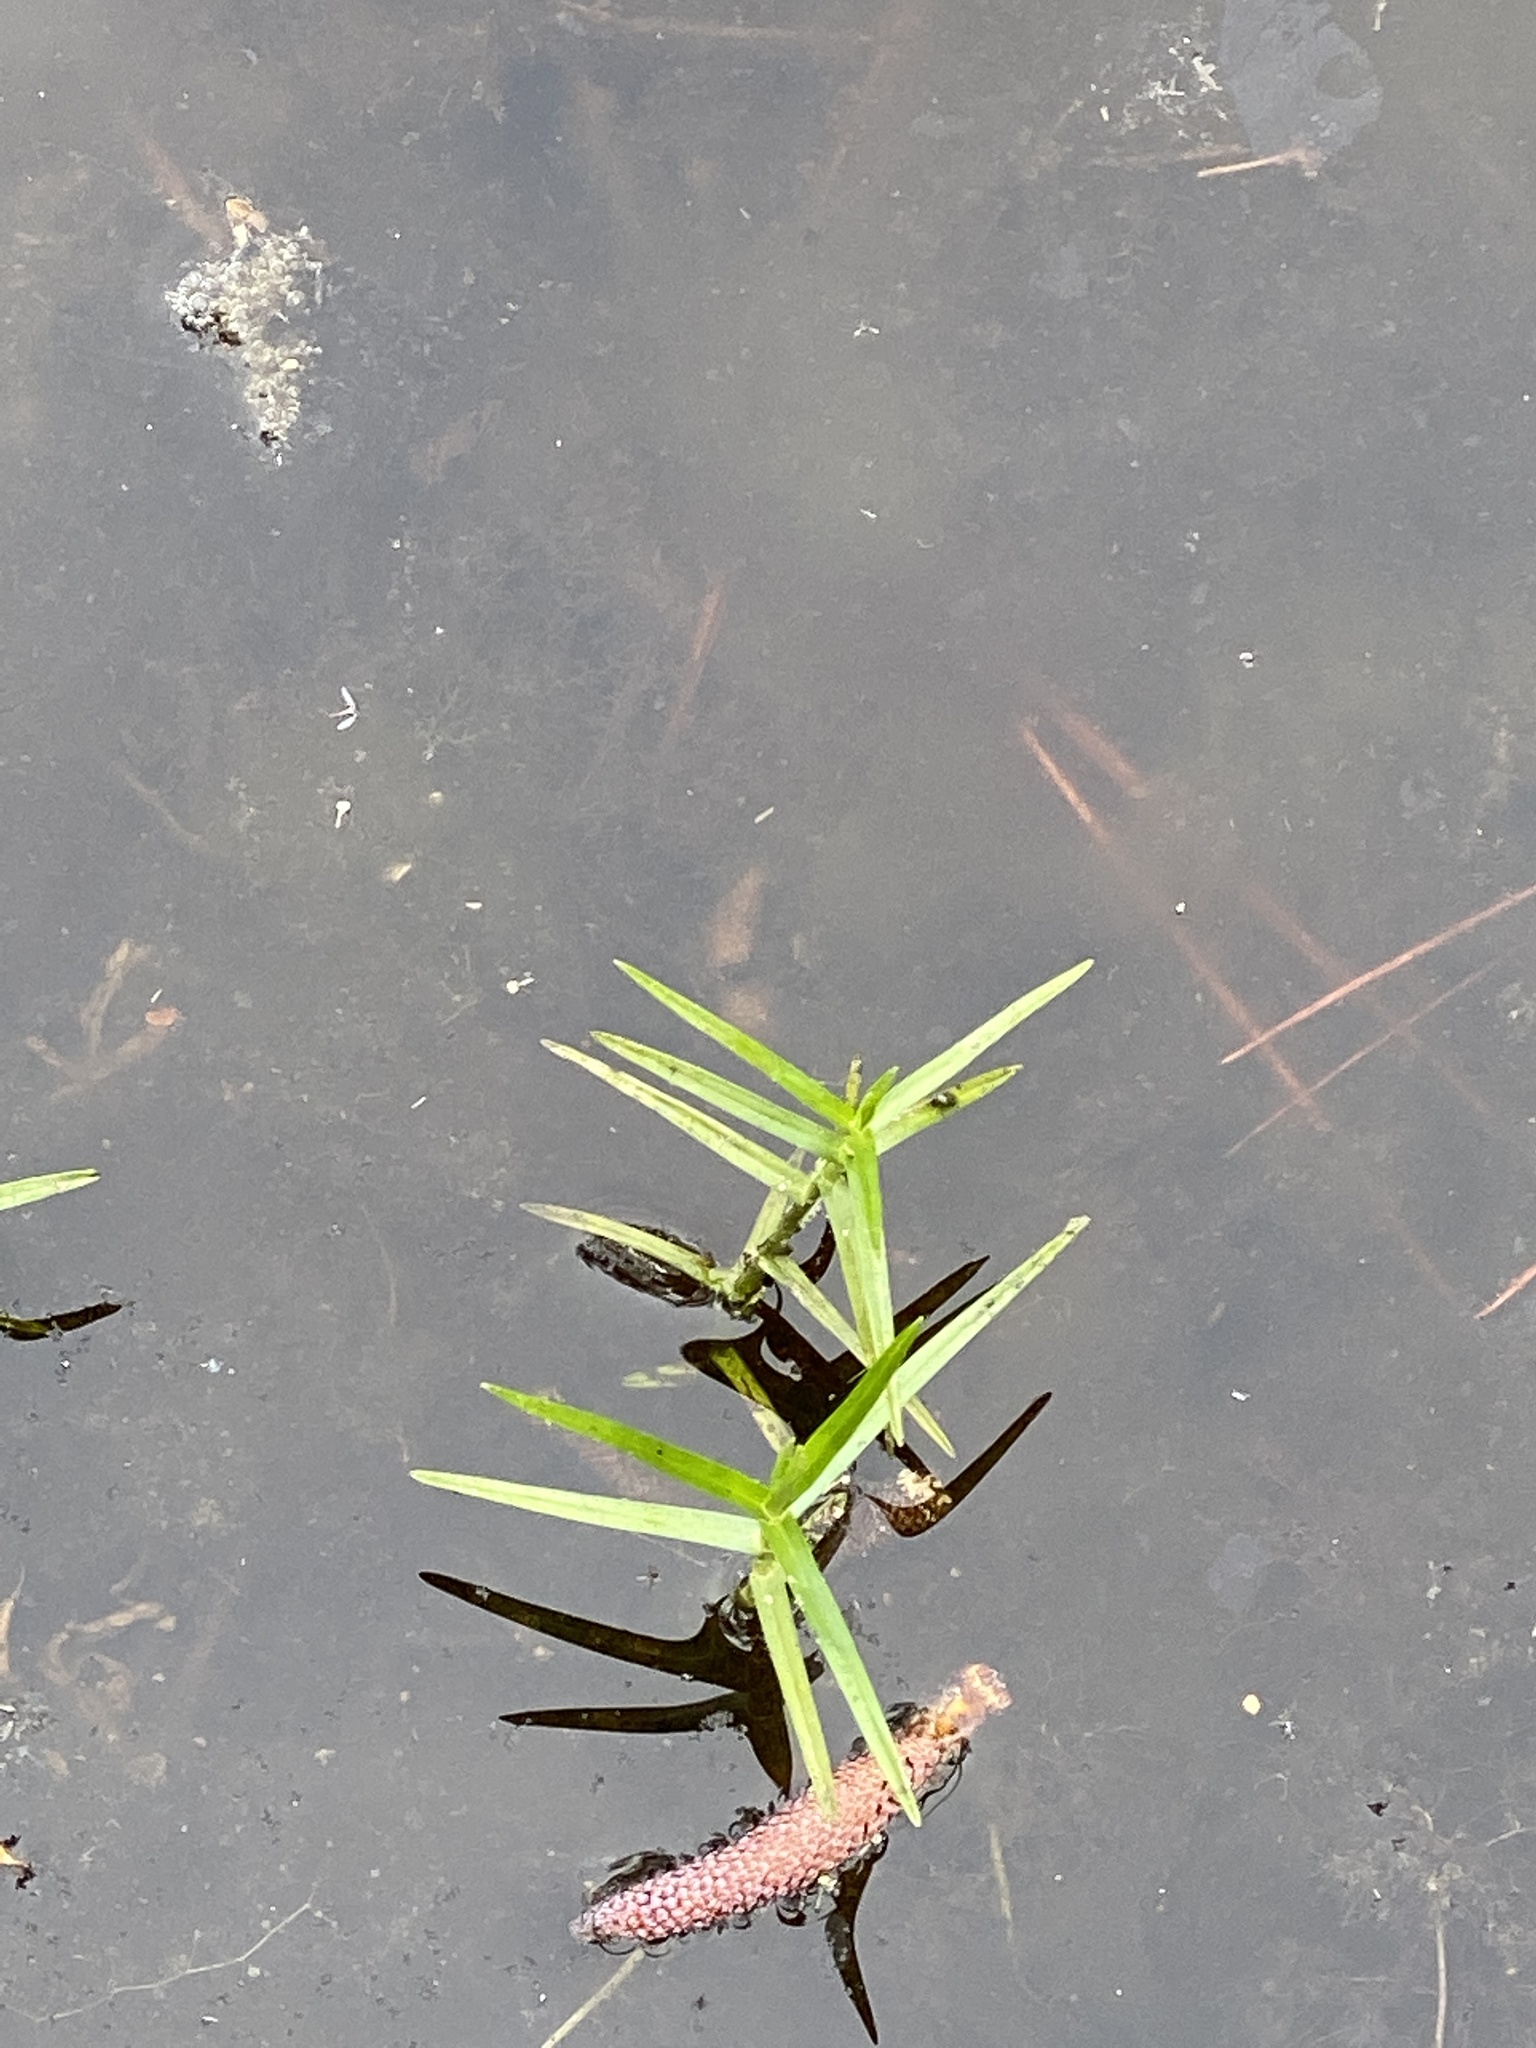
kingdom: Plantae
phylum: Tracheophyta
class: Liliopsida
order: Poales
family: Cyperaceae
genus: Dulichium
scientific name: Dulichium arundinaceum
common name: Three-way sedge
